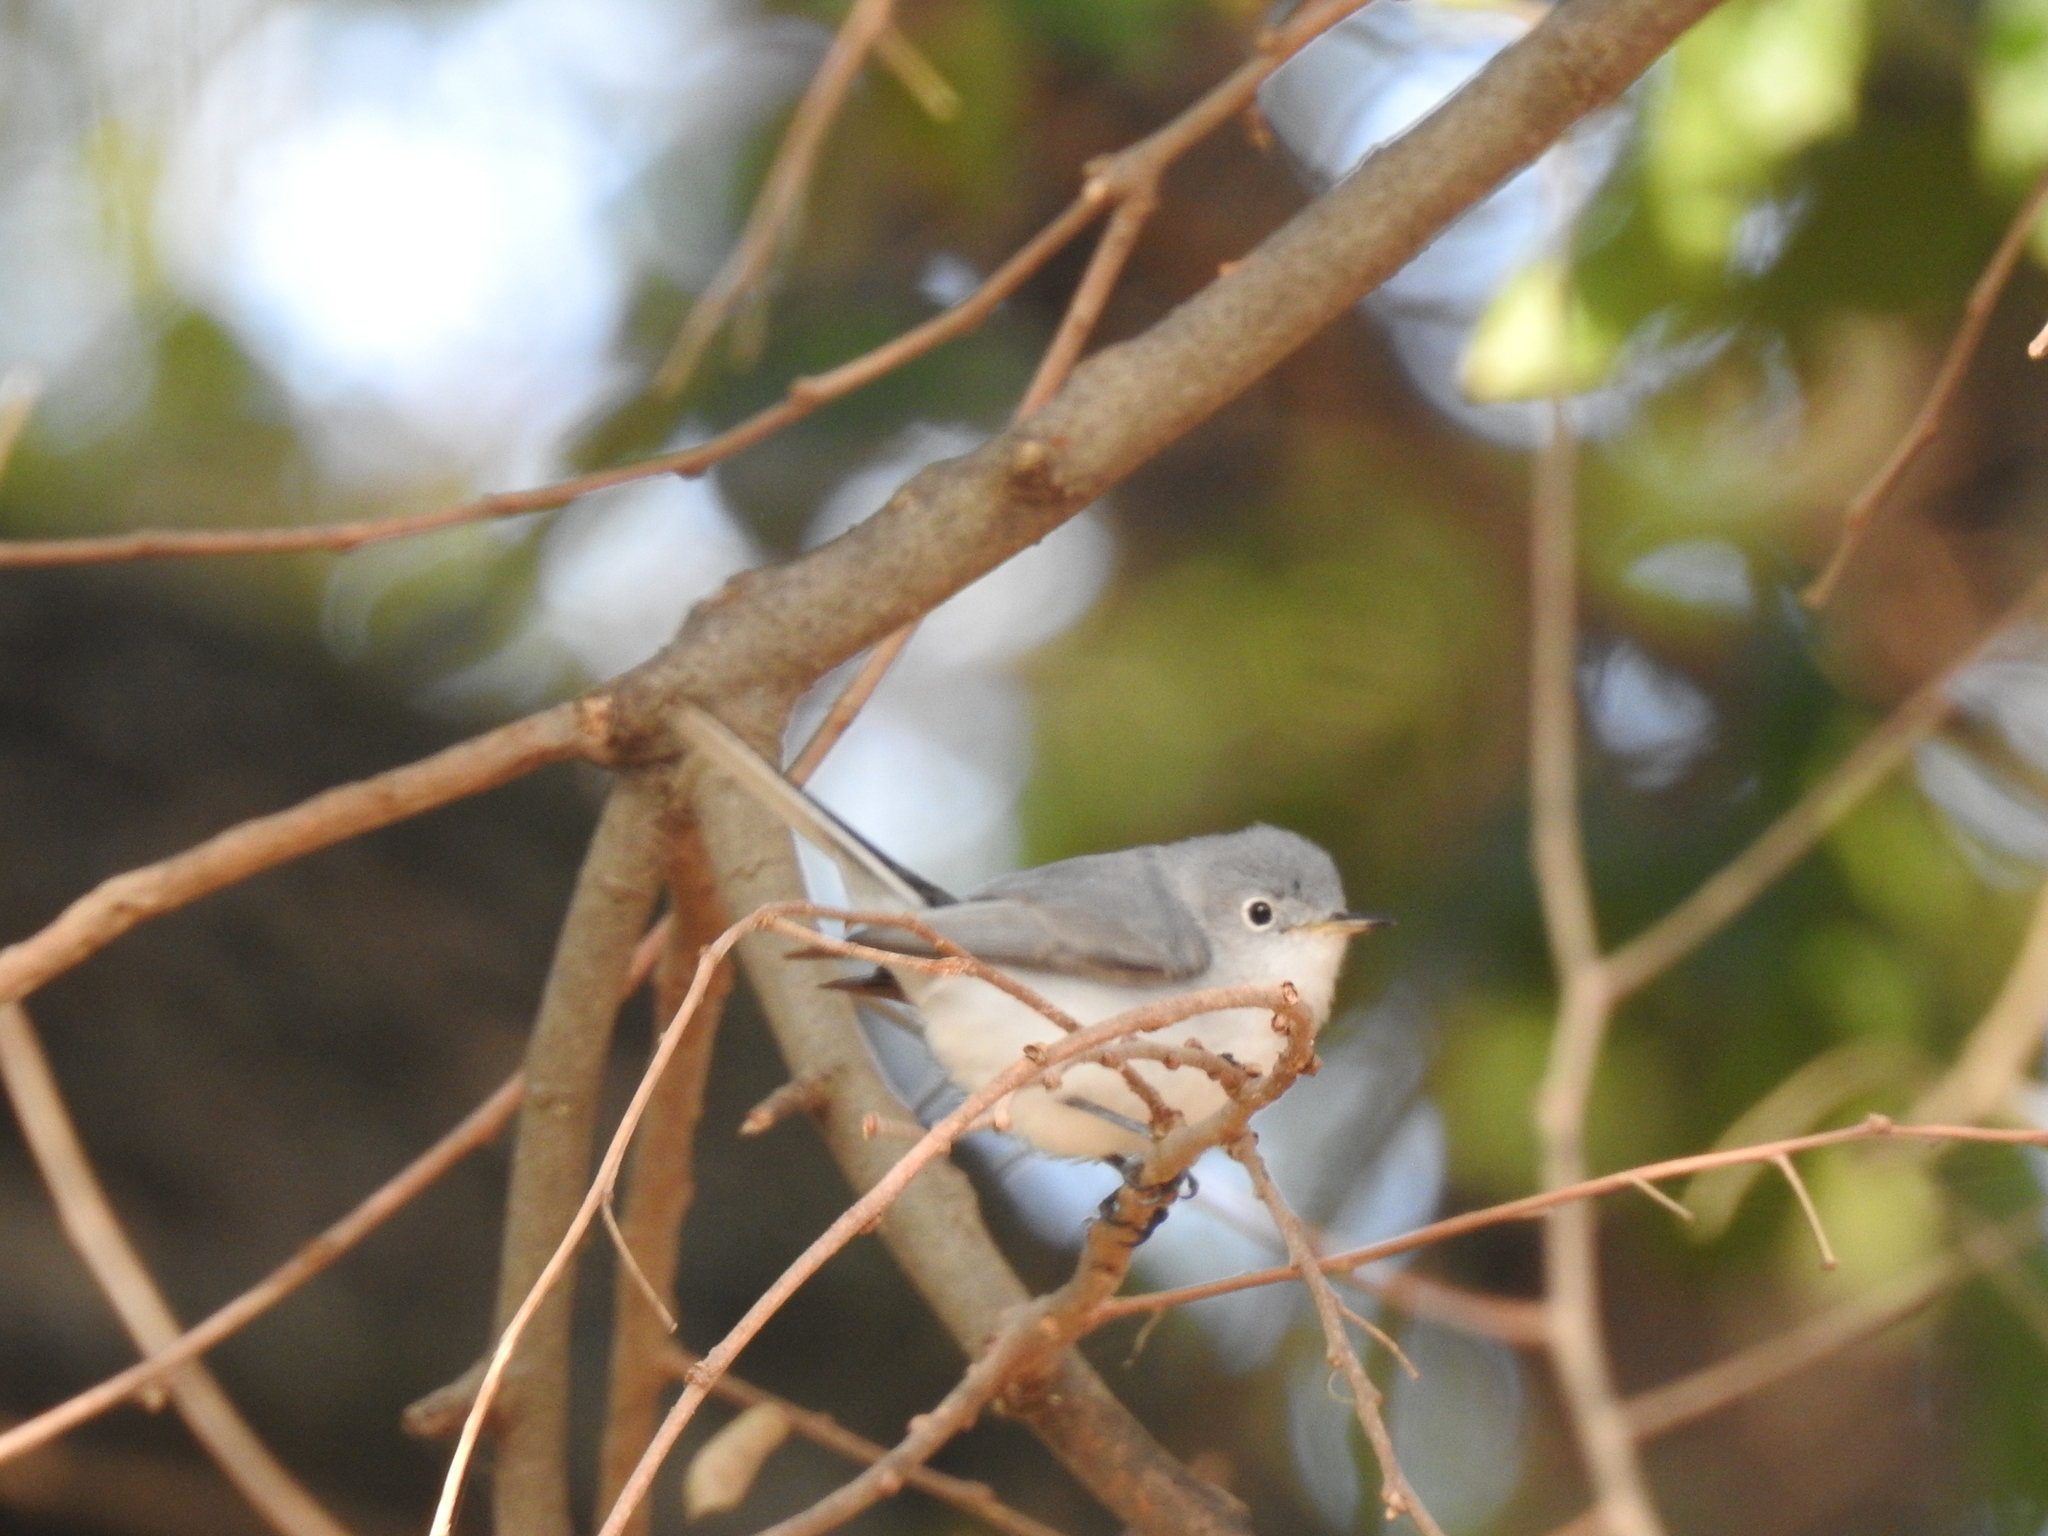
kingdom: Animalia
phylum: Chordata
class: Aves
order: Passeriformes
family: Polioptilidae
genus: Polioptila
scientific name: Polioptila caerulea
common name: Blue-gray gnatcatcher
